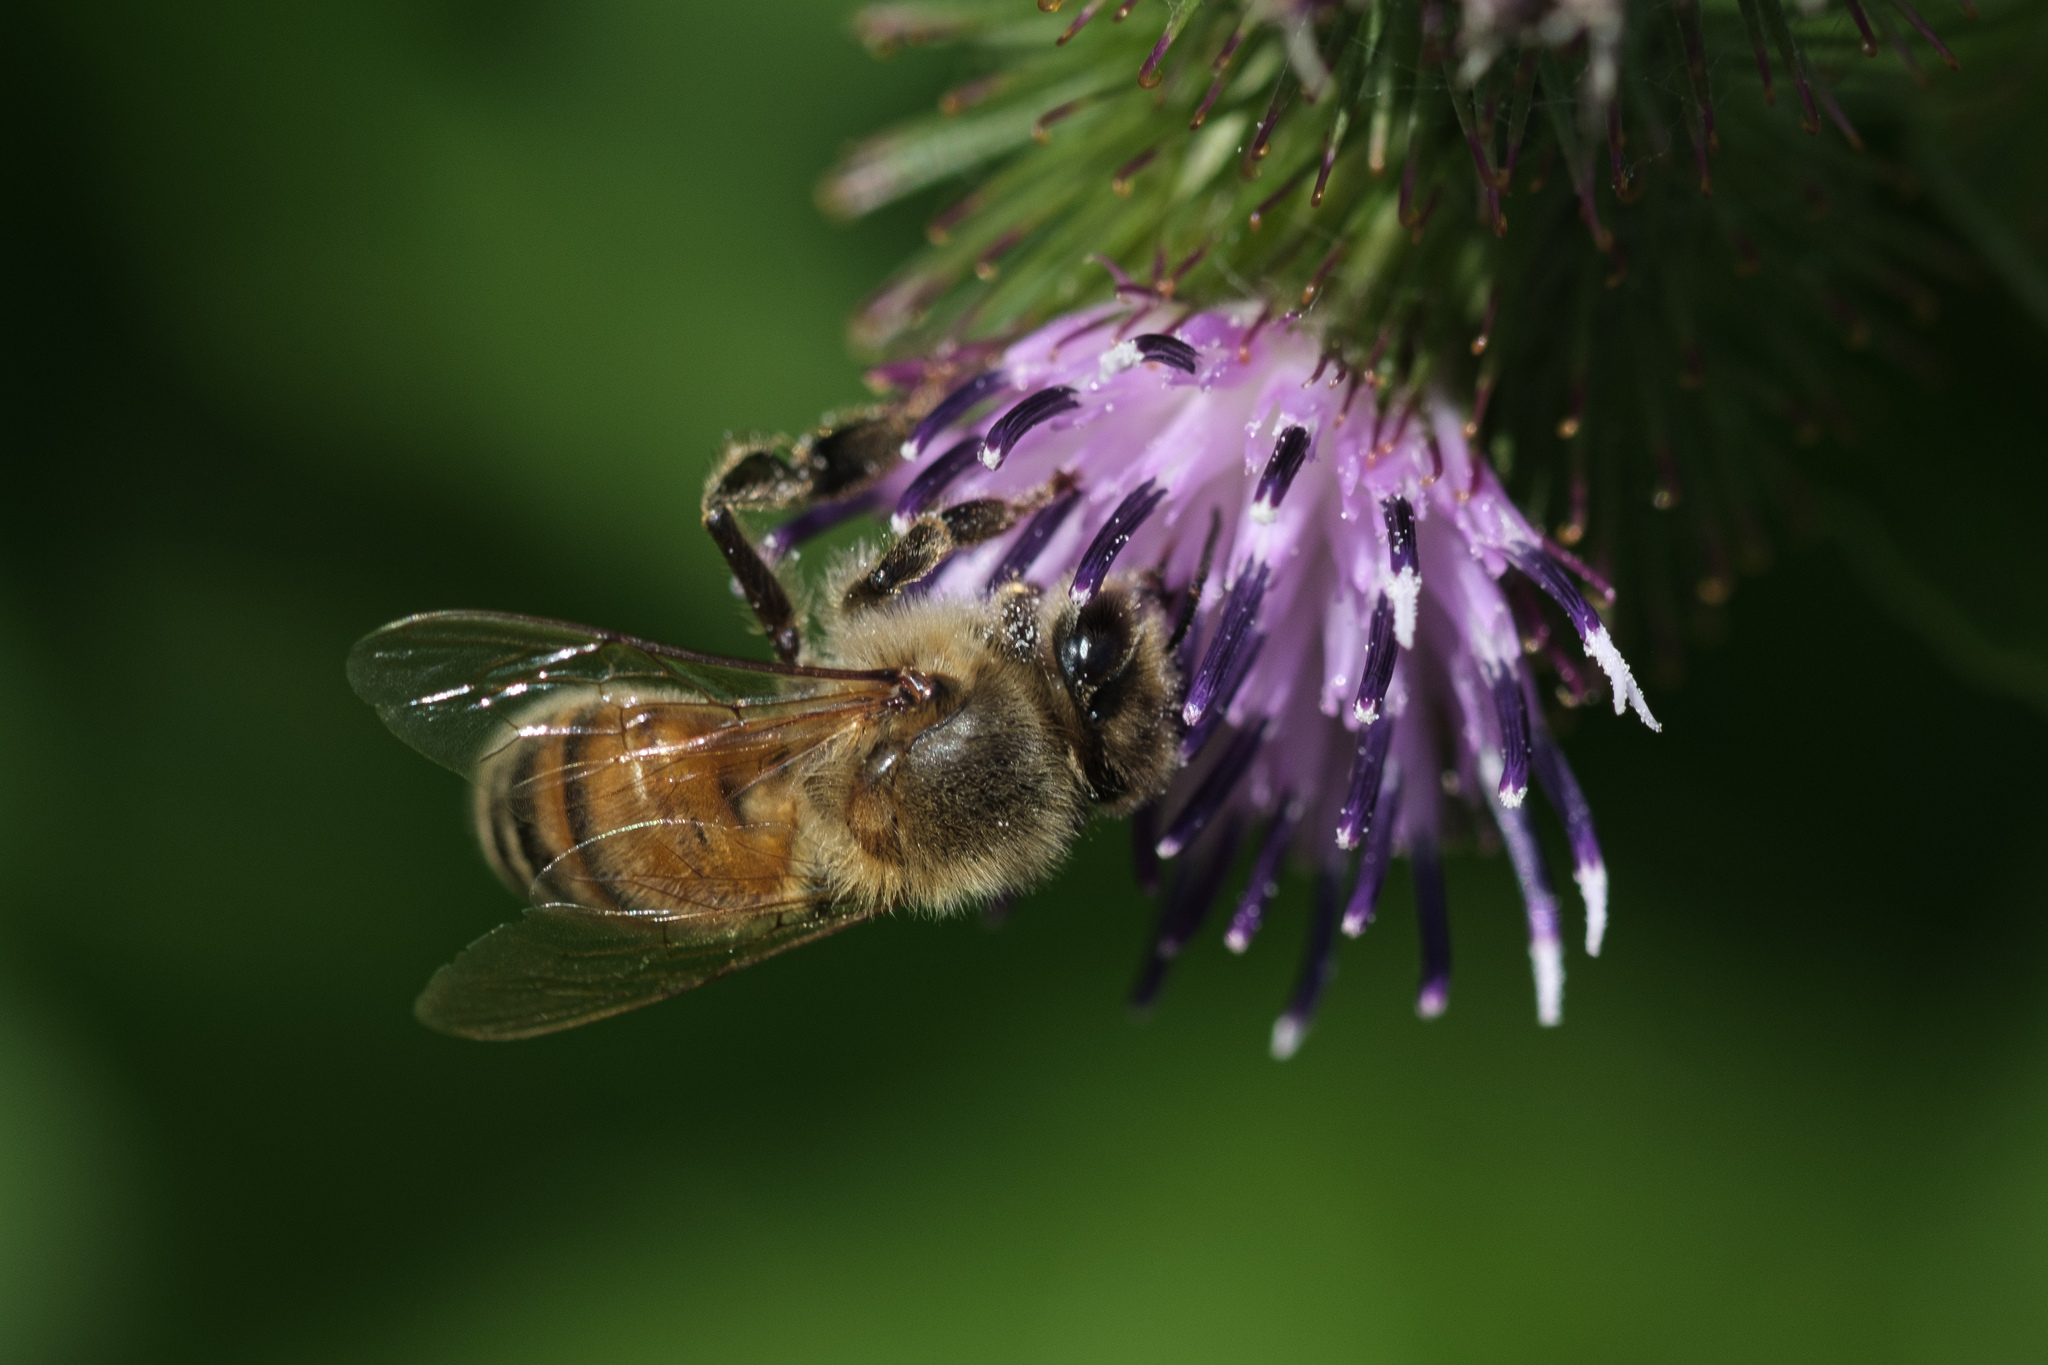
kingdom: Animalia
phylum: Arthropoda
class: Insecta
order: Hymenoptera
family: Apidae
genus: Apis
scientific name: Apis mellifera
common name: Honey bee
